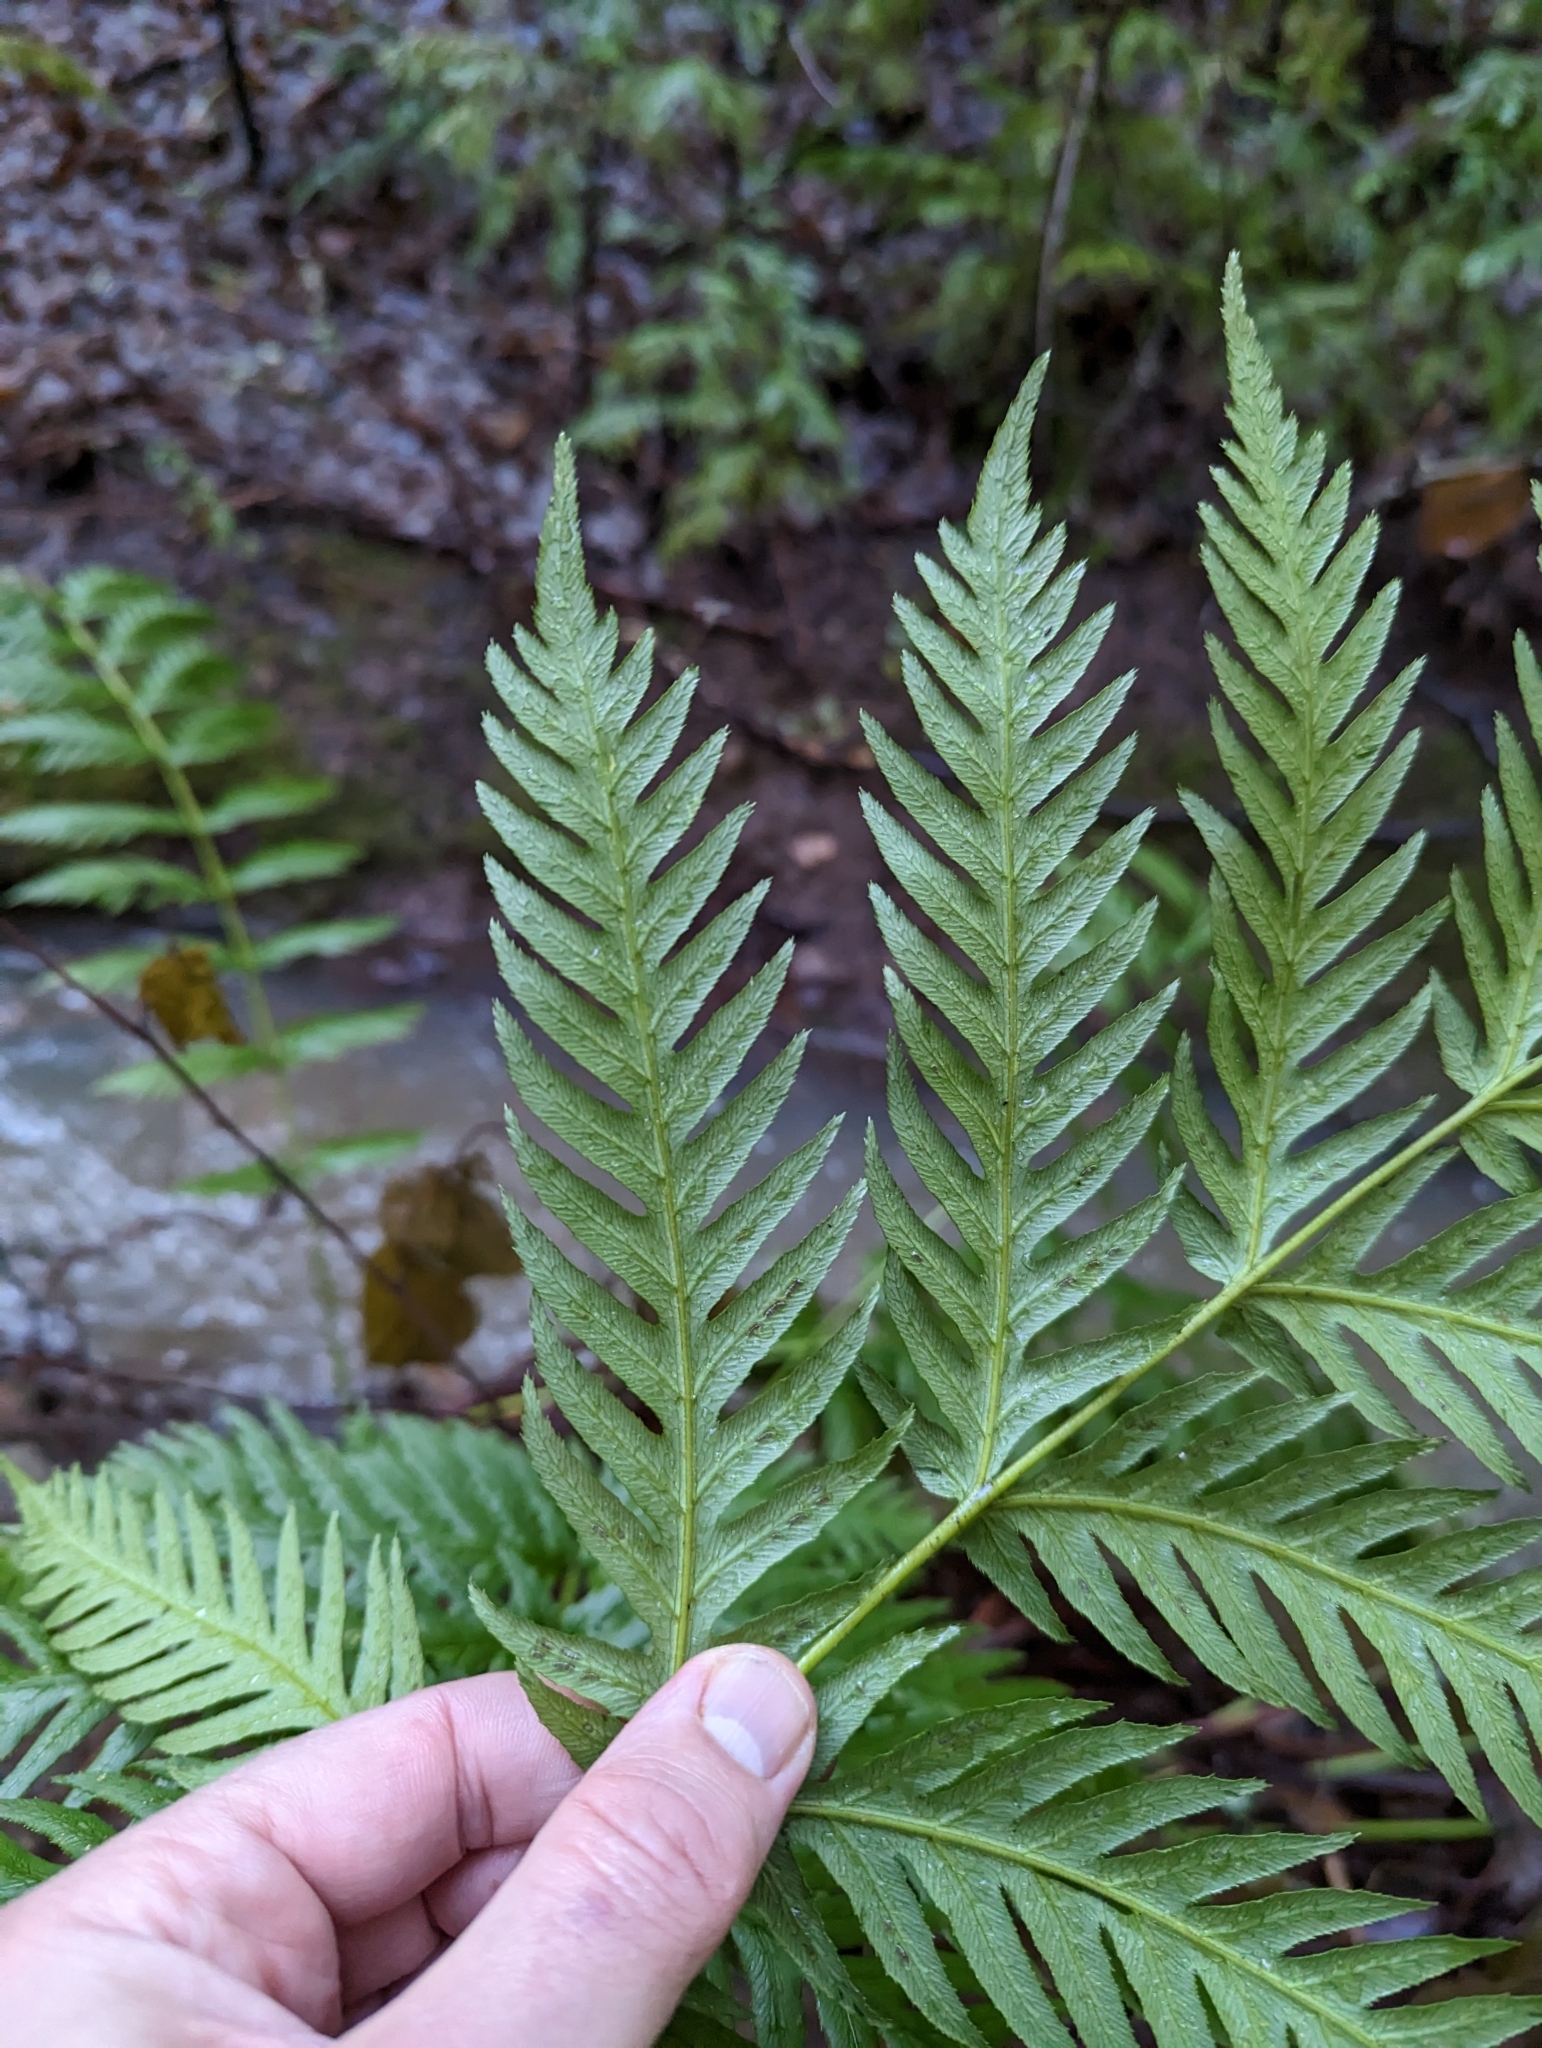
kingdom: Plantae
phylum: Tracheophyta
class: Polypodiopsida
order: Polypodiales
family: Blechnaceae
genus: Woodwardia
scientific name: Woodwardia fimbriata
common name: Giant chain fern
